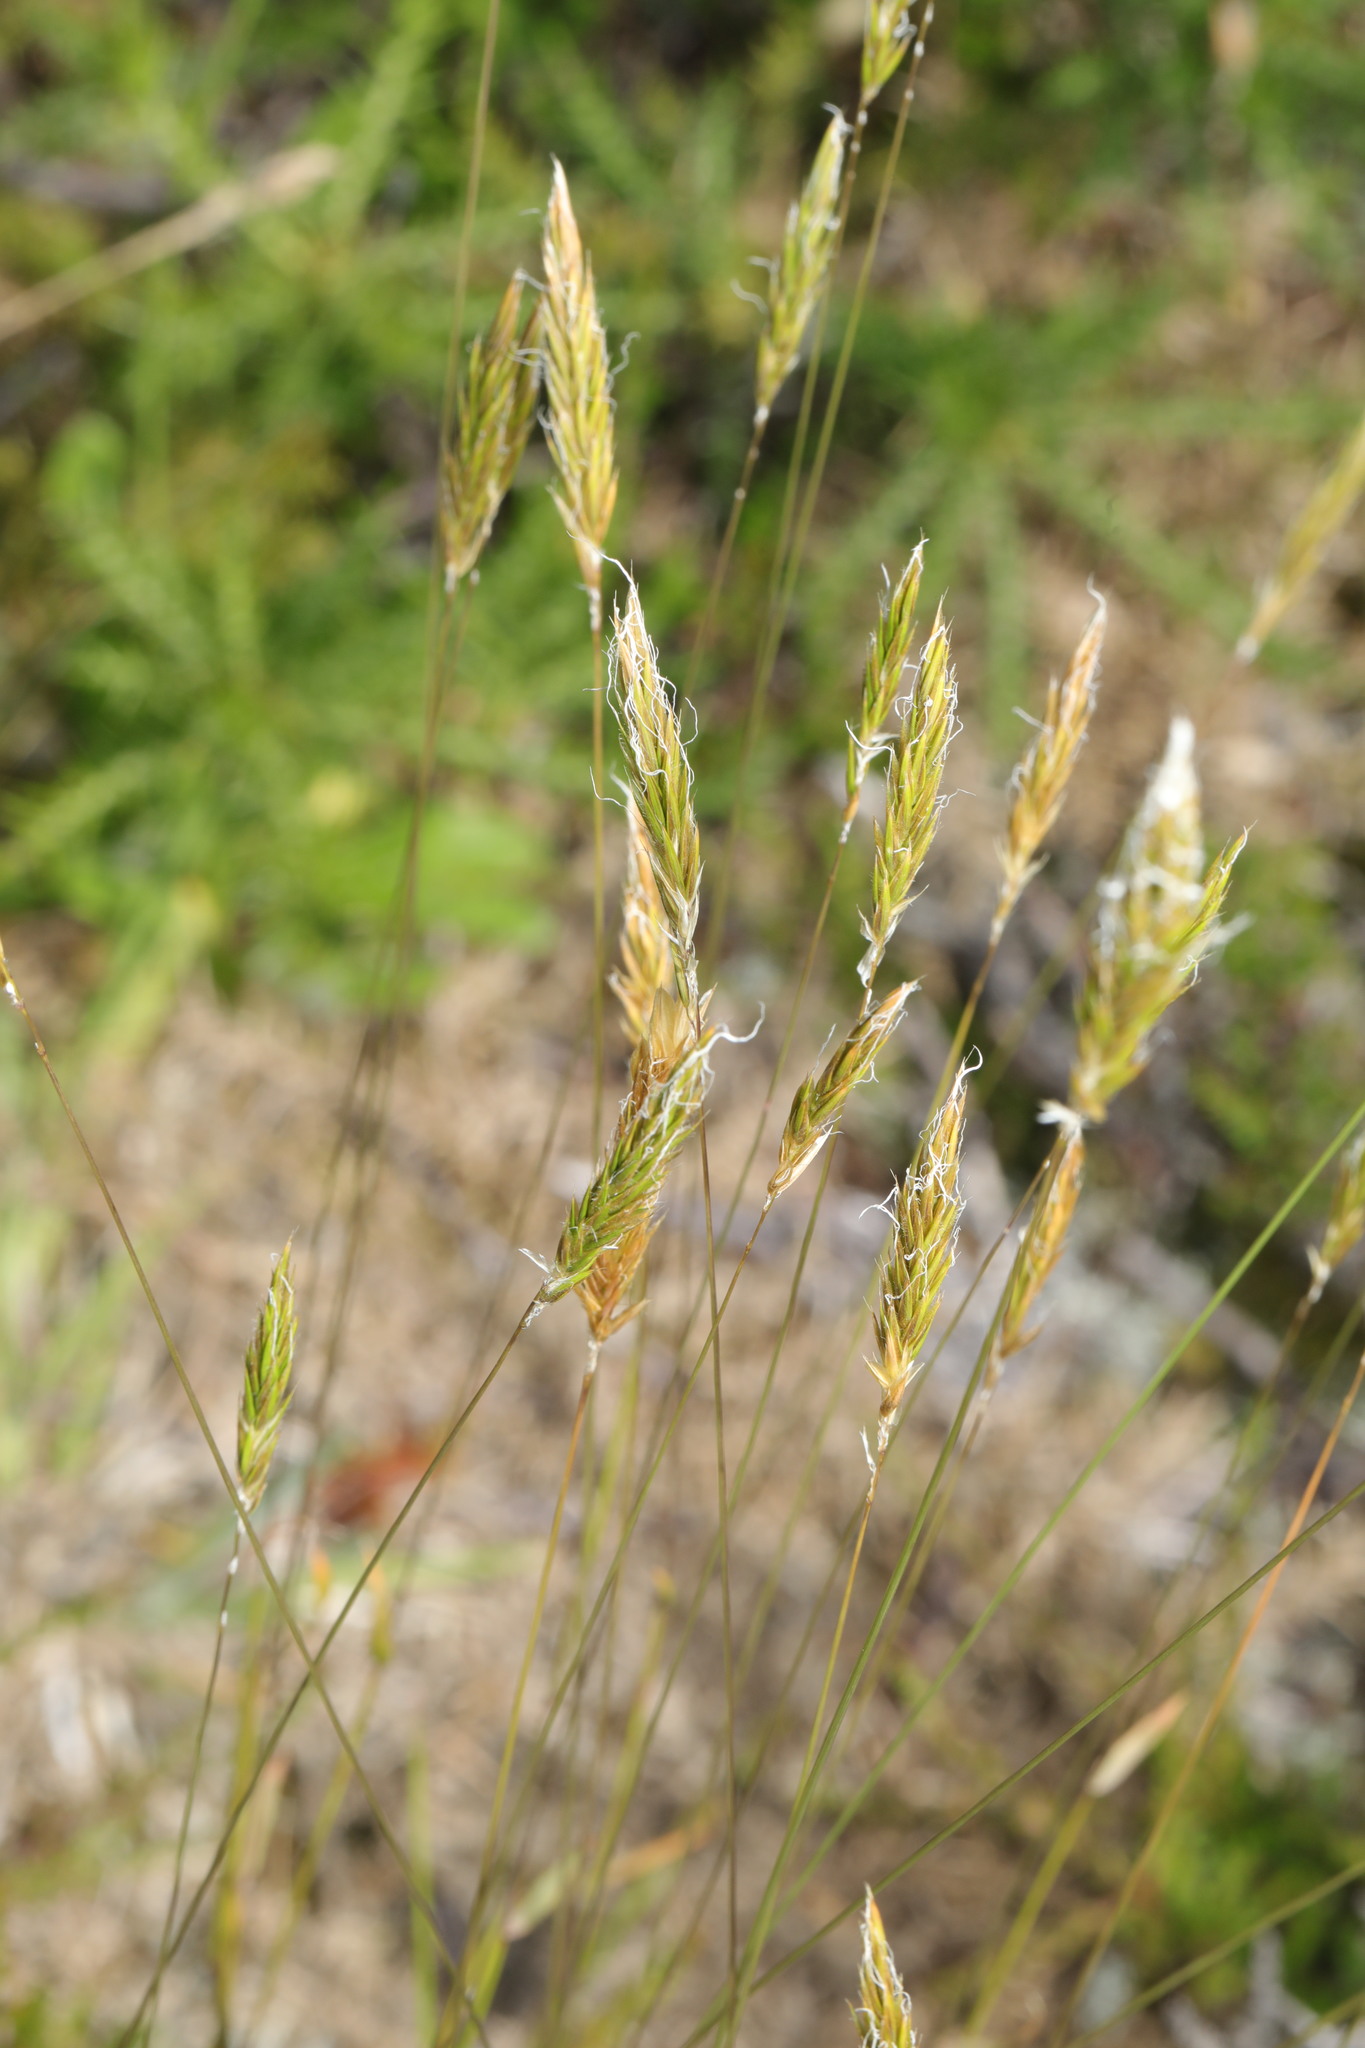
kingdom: Plantae
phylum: Tracheophyta
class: Liliopsida
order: Poales
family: Poaceae
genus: Anthoxanthum
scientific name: Anthoxanthum odoratum
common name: Sweet vernalgrass
